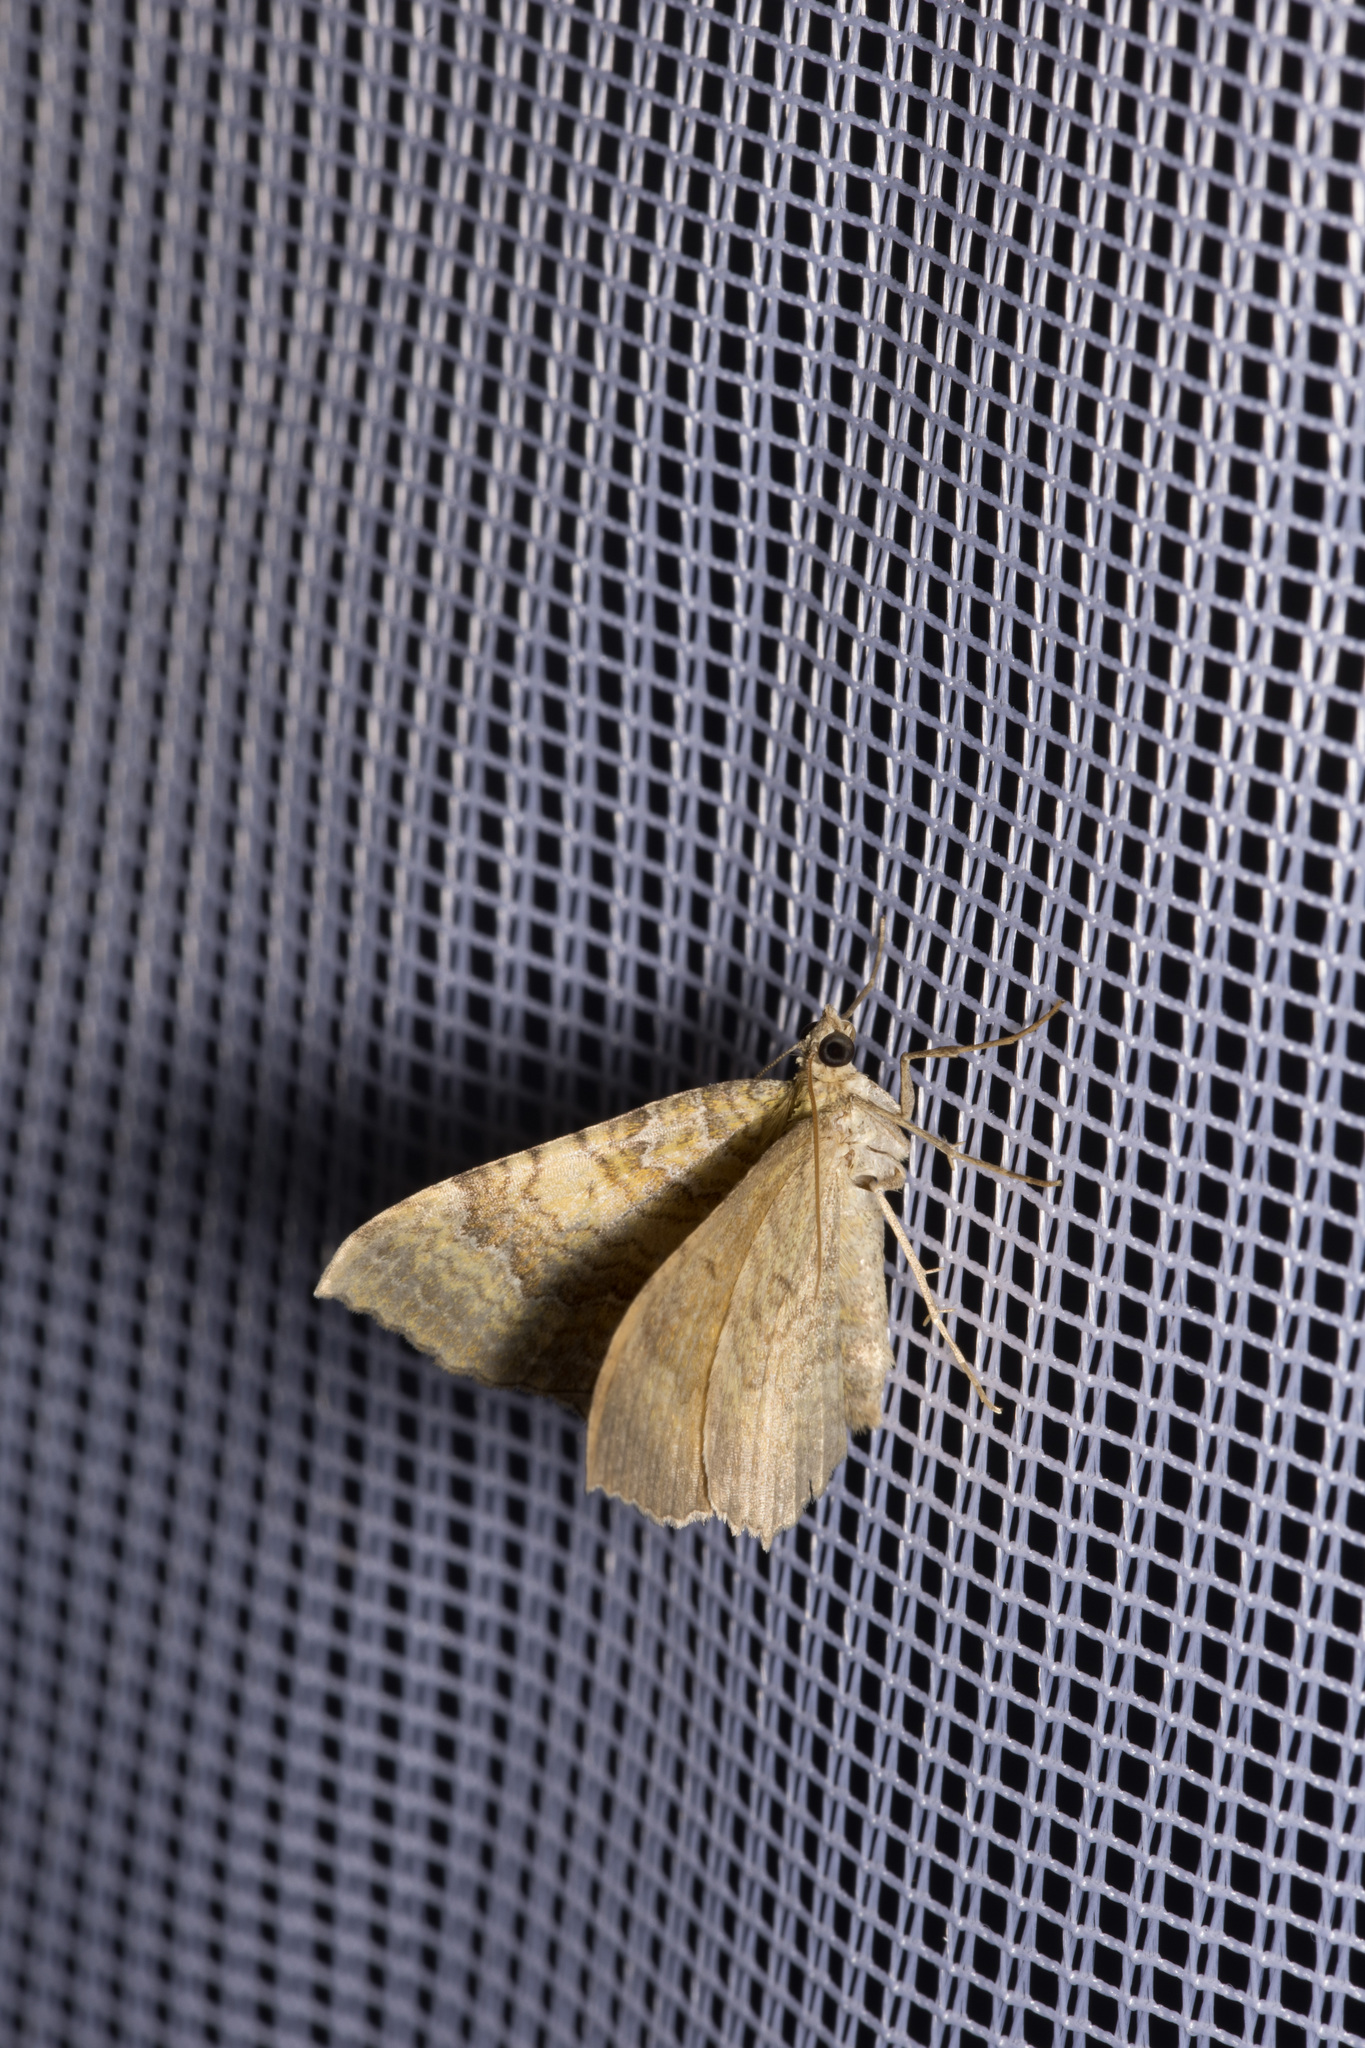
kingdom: Animalia
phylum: Arthropoda
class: Insecta
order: Lepidoptera
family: Geometridae
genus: Camptogramma
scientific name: Camptogramma bilineata
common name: Yellow shell
